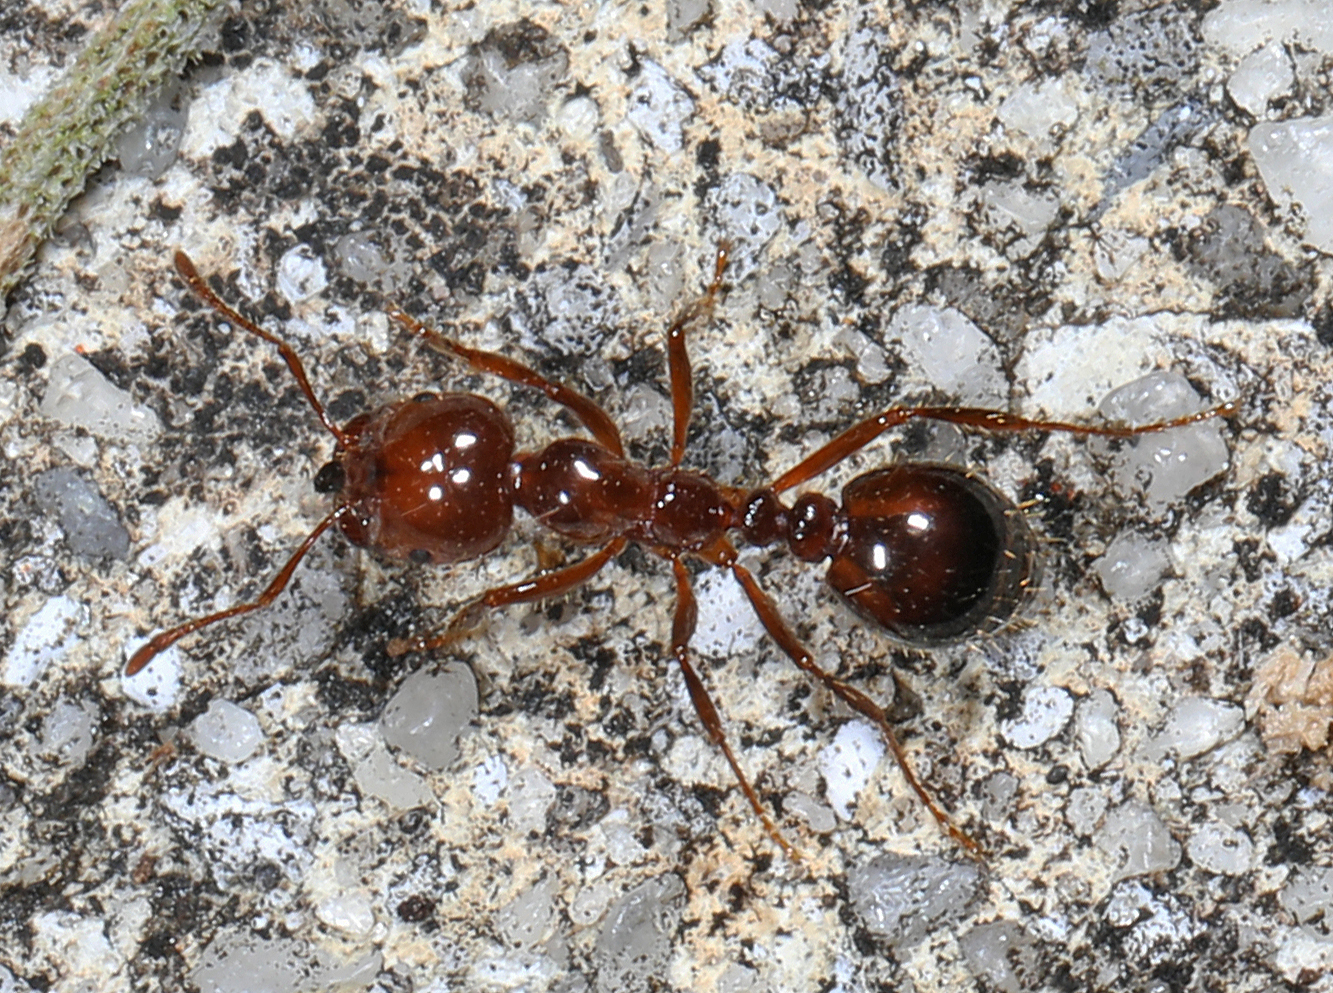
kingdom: Animalia
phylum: Arthropoda
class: Insecta
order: Hymenoptera
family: Formicidae
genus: Solenopsis
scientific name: Solenopsis invicta
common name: Red imported fire ant
